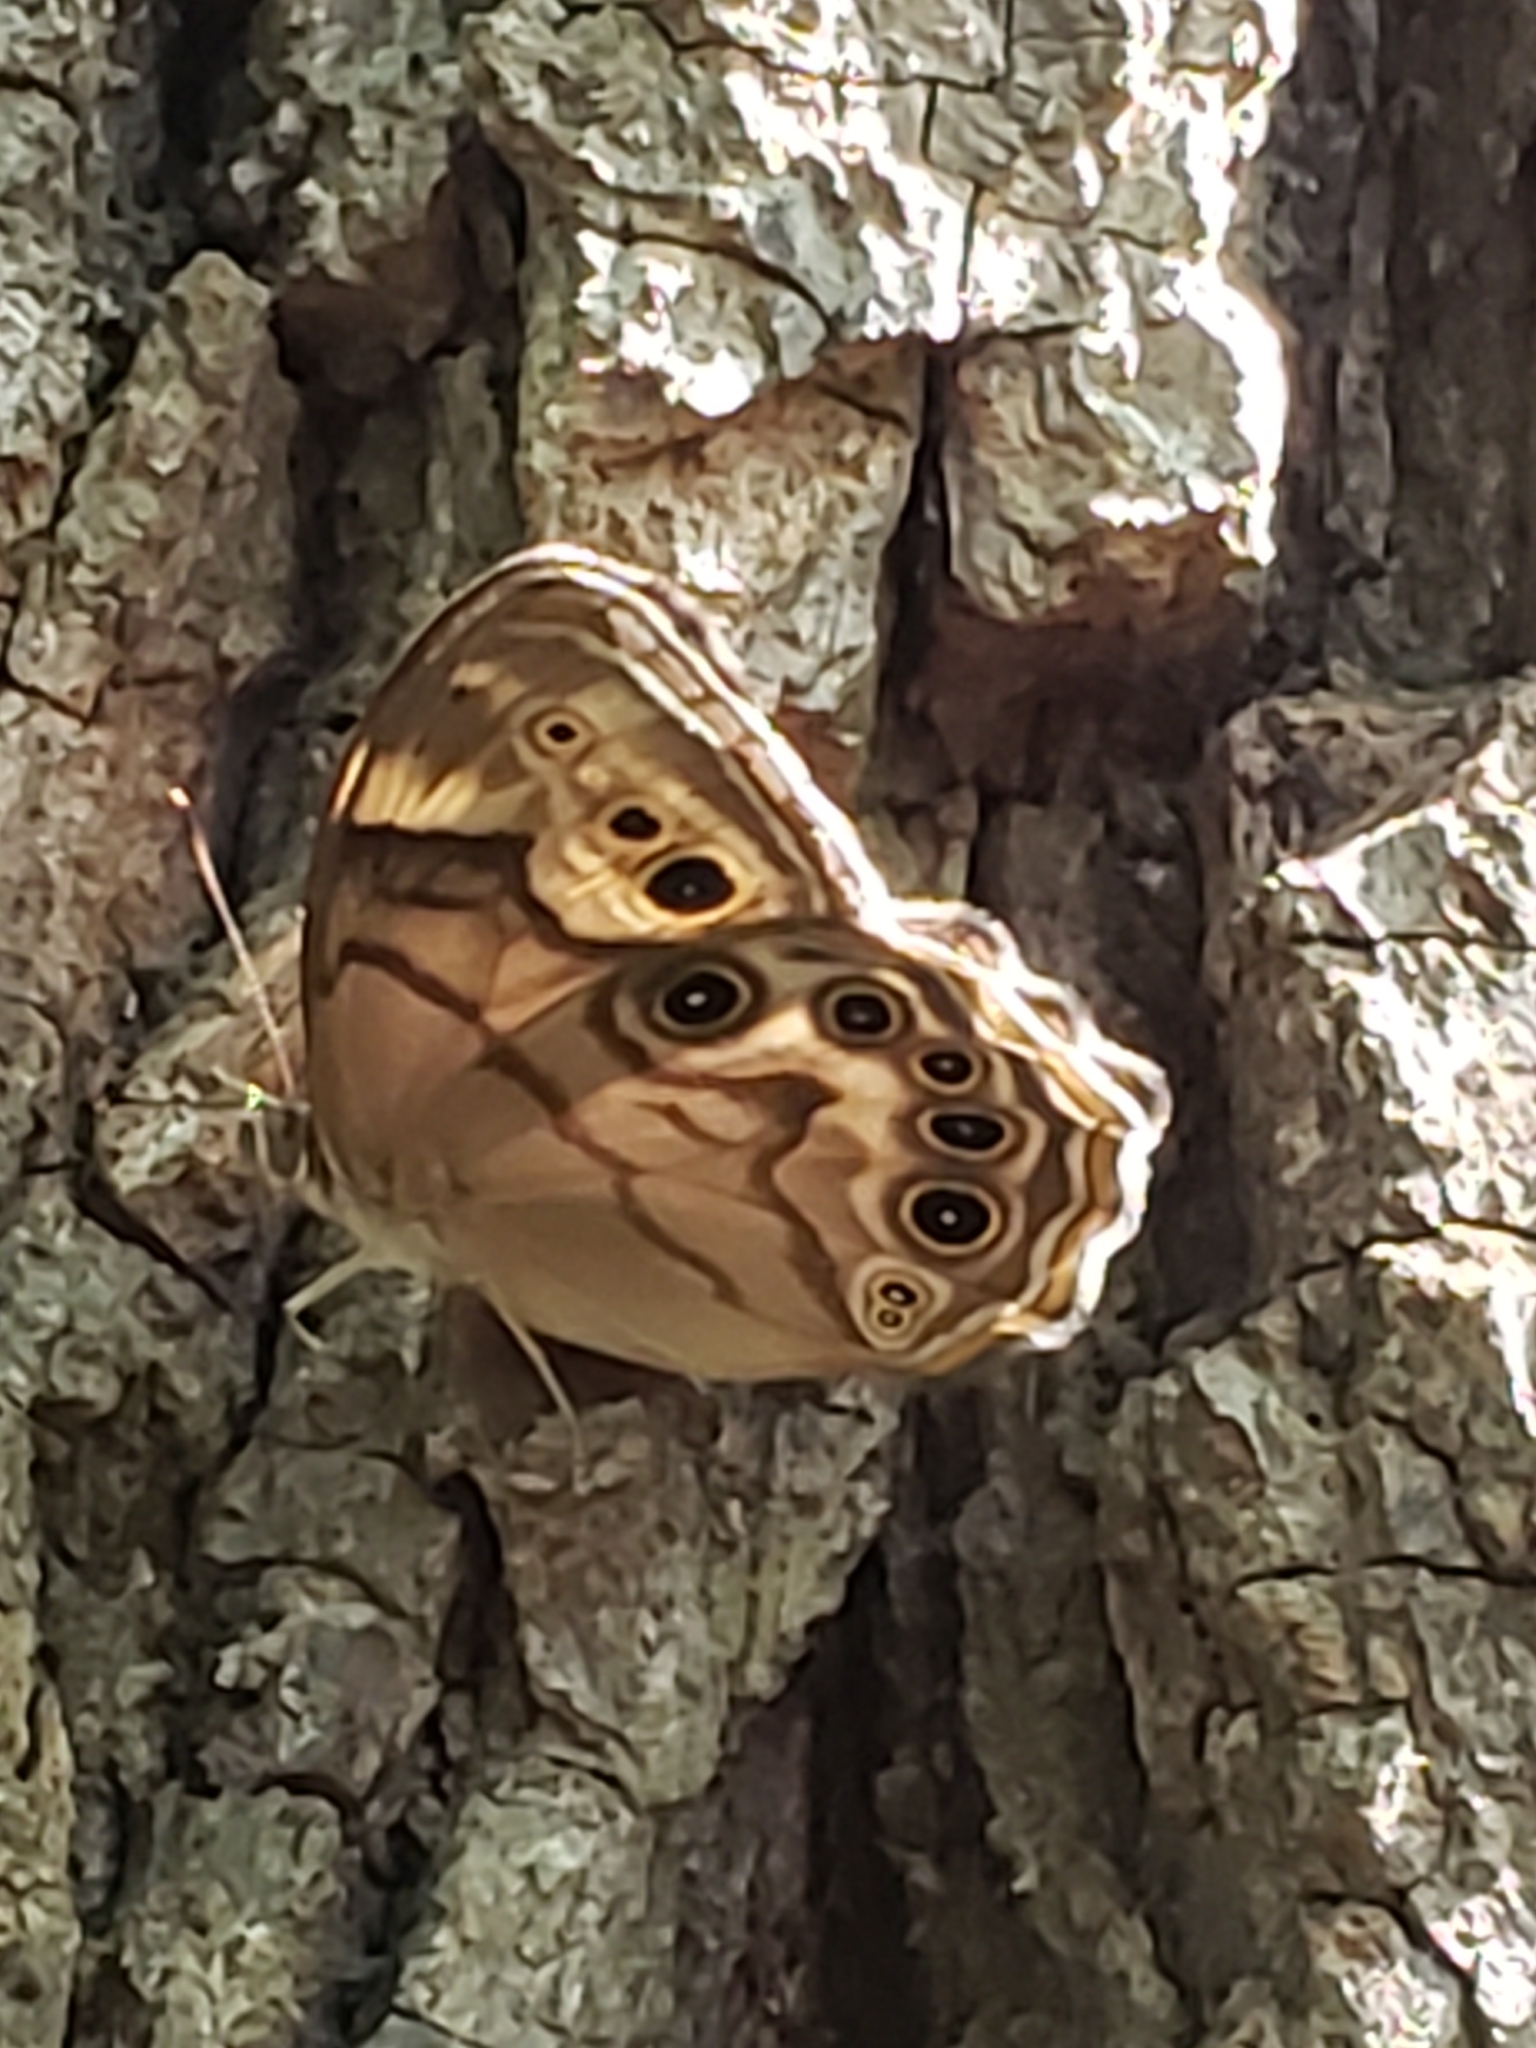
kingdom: Animalia
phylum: Arthropoda
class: Insecta
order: Lepidoptera
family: Nymphalidae
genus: Lethe
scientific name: Lethe anthedon
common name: Northern pearly-eye
